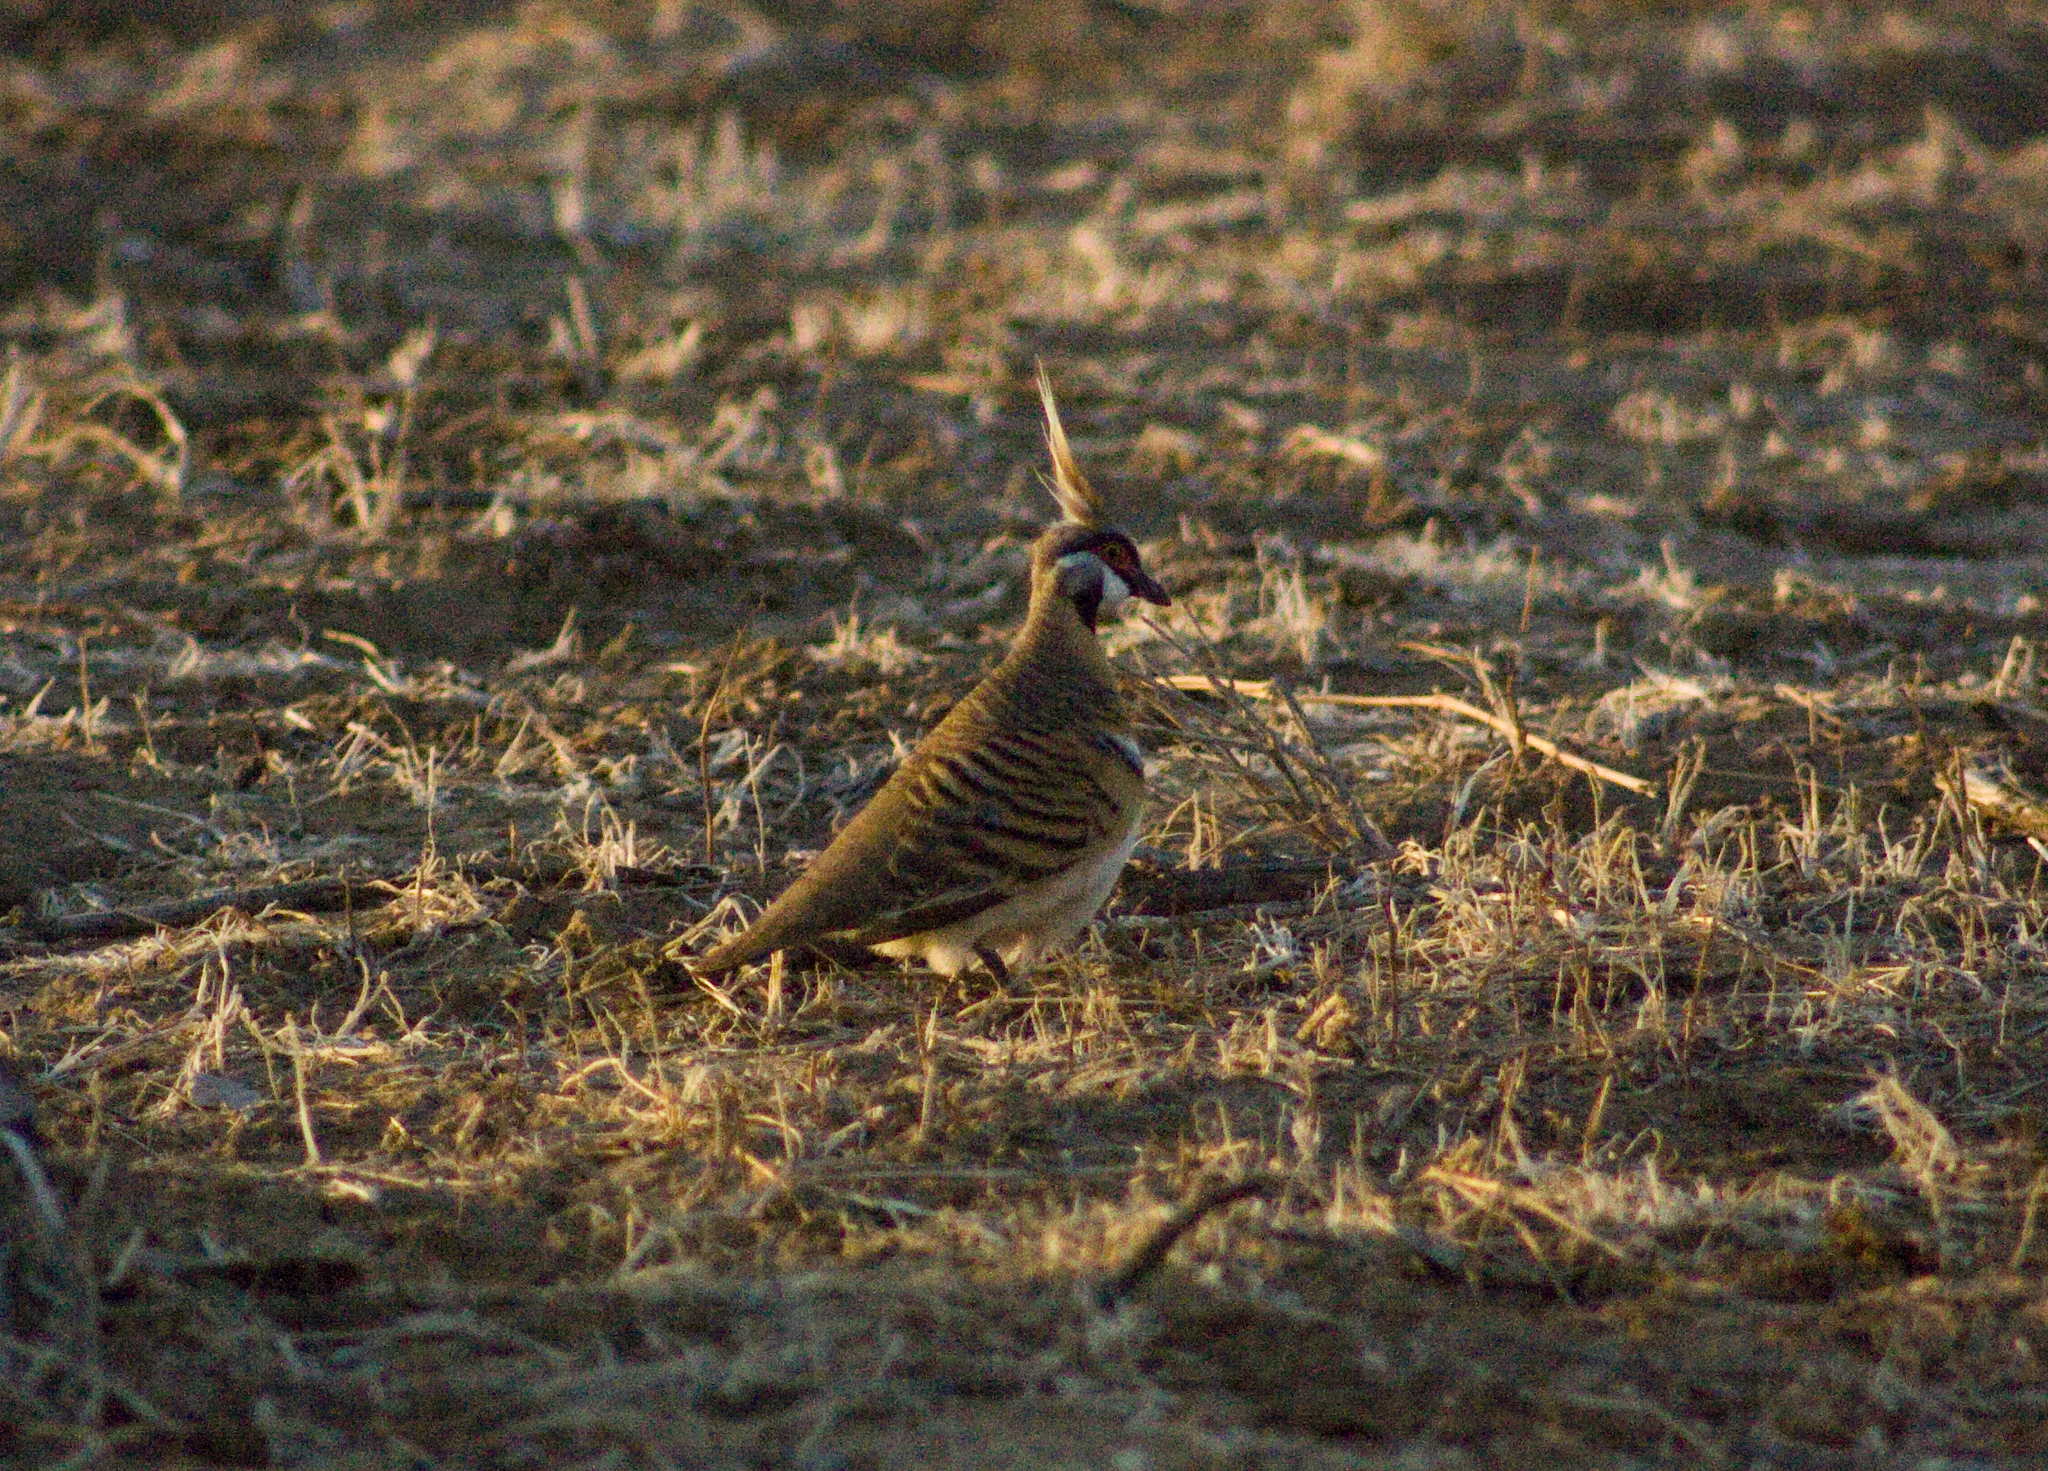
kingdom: Animalia
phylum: Chordata
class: Aves
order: Columbiformes
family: Columbidae
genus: Geophaps
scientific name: Geophaps plumifera
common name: Spinifex pigeon
